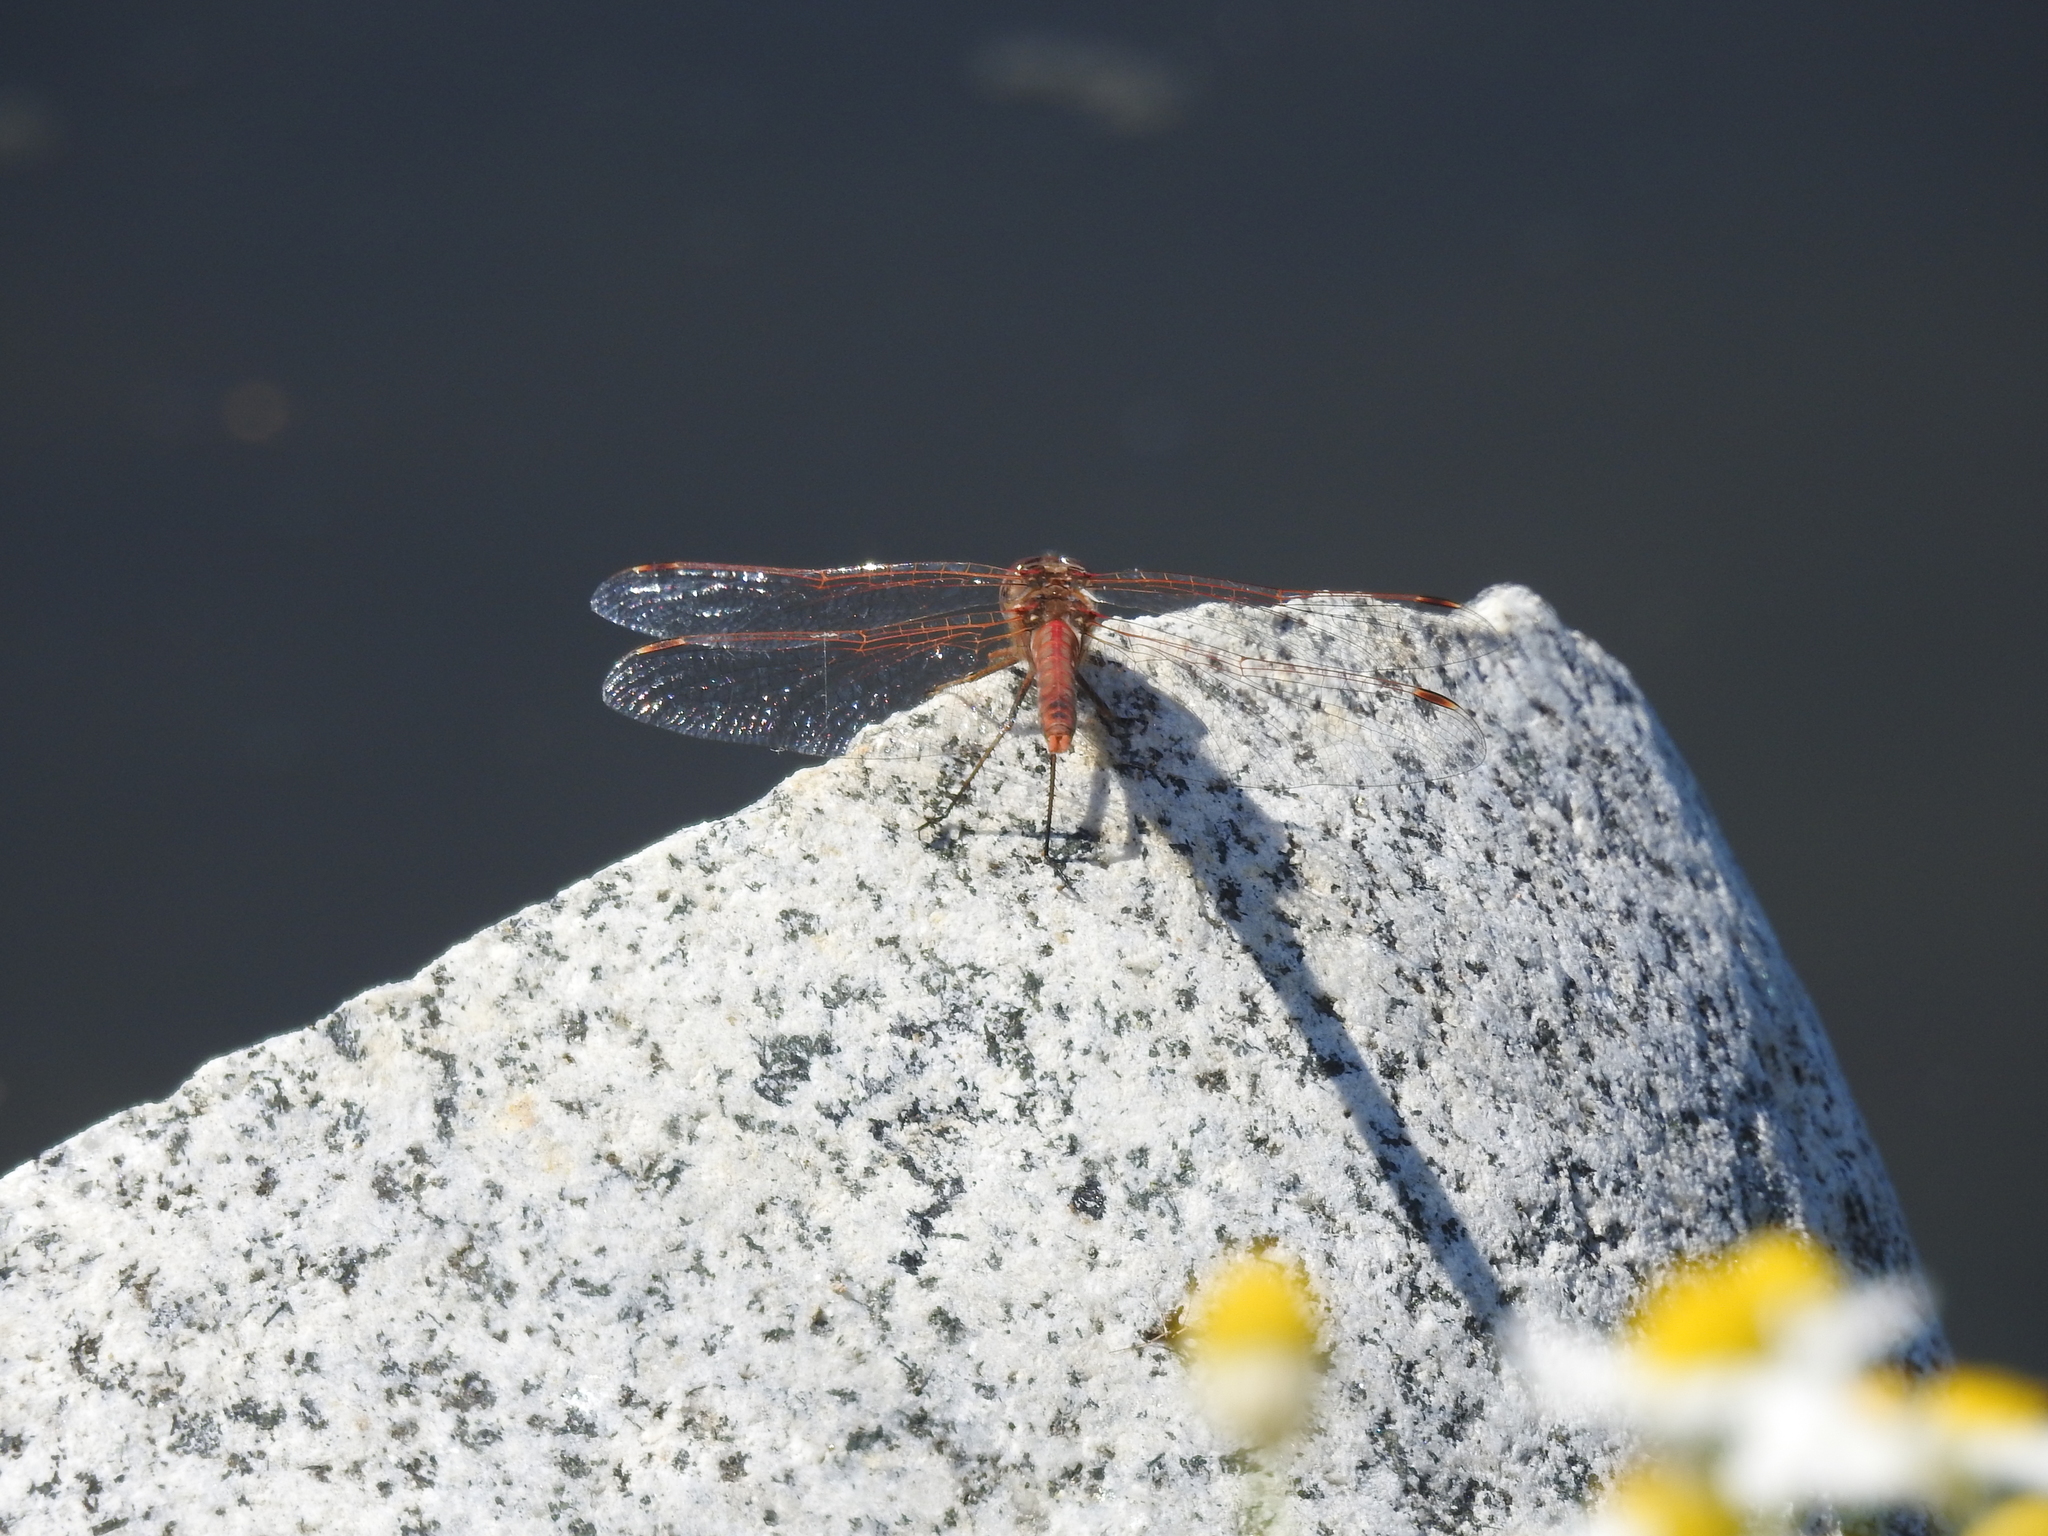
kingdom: Animalia
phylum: Arthropoda
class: Insecta
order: Odonata
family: Libellulidae
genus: Sympetrum
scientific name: Sympetrum corruptum
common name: Variegated meadowhawk
